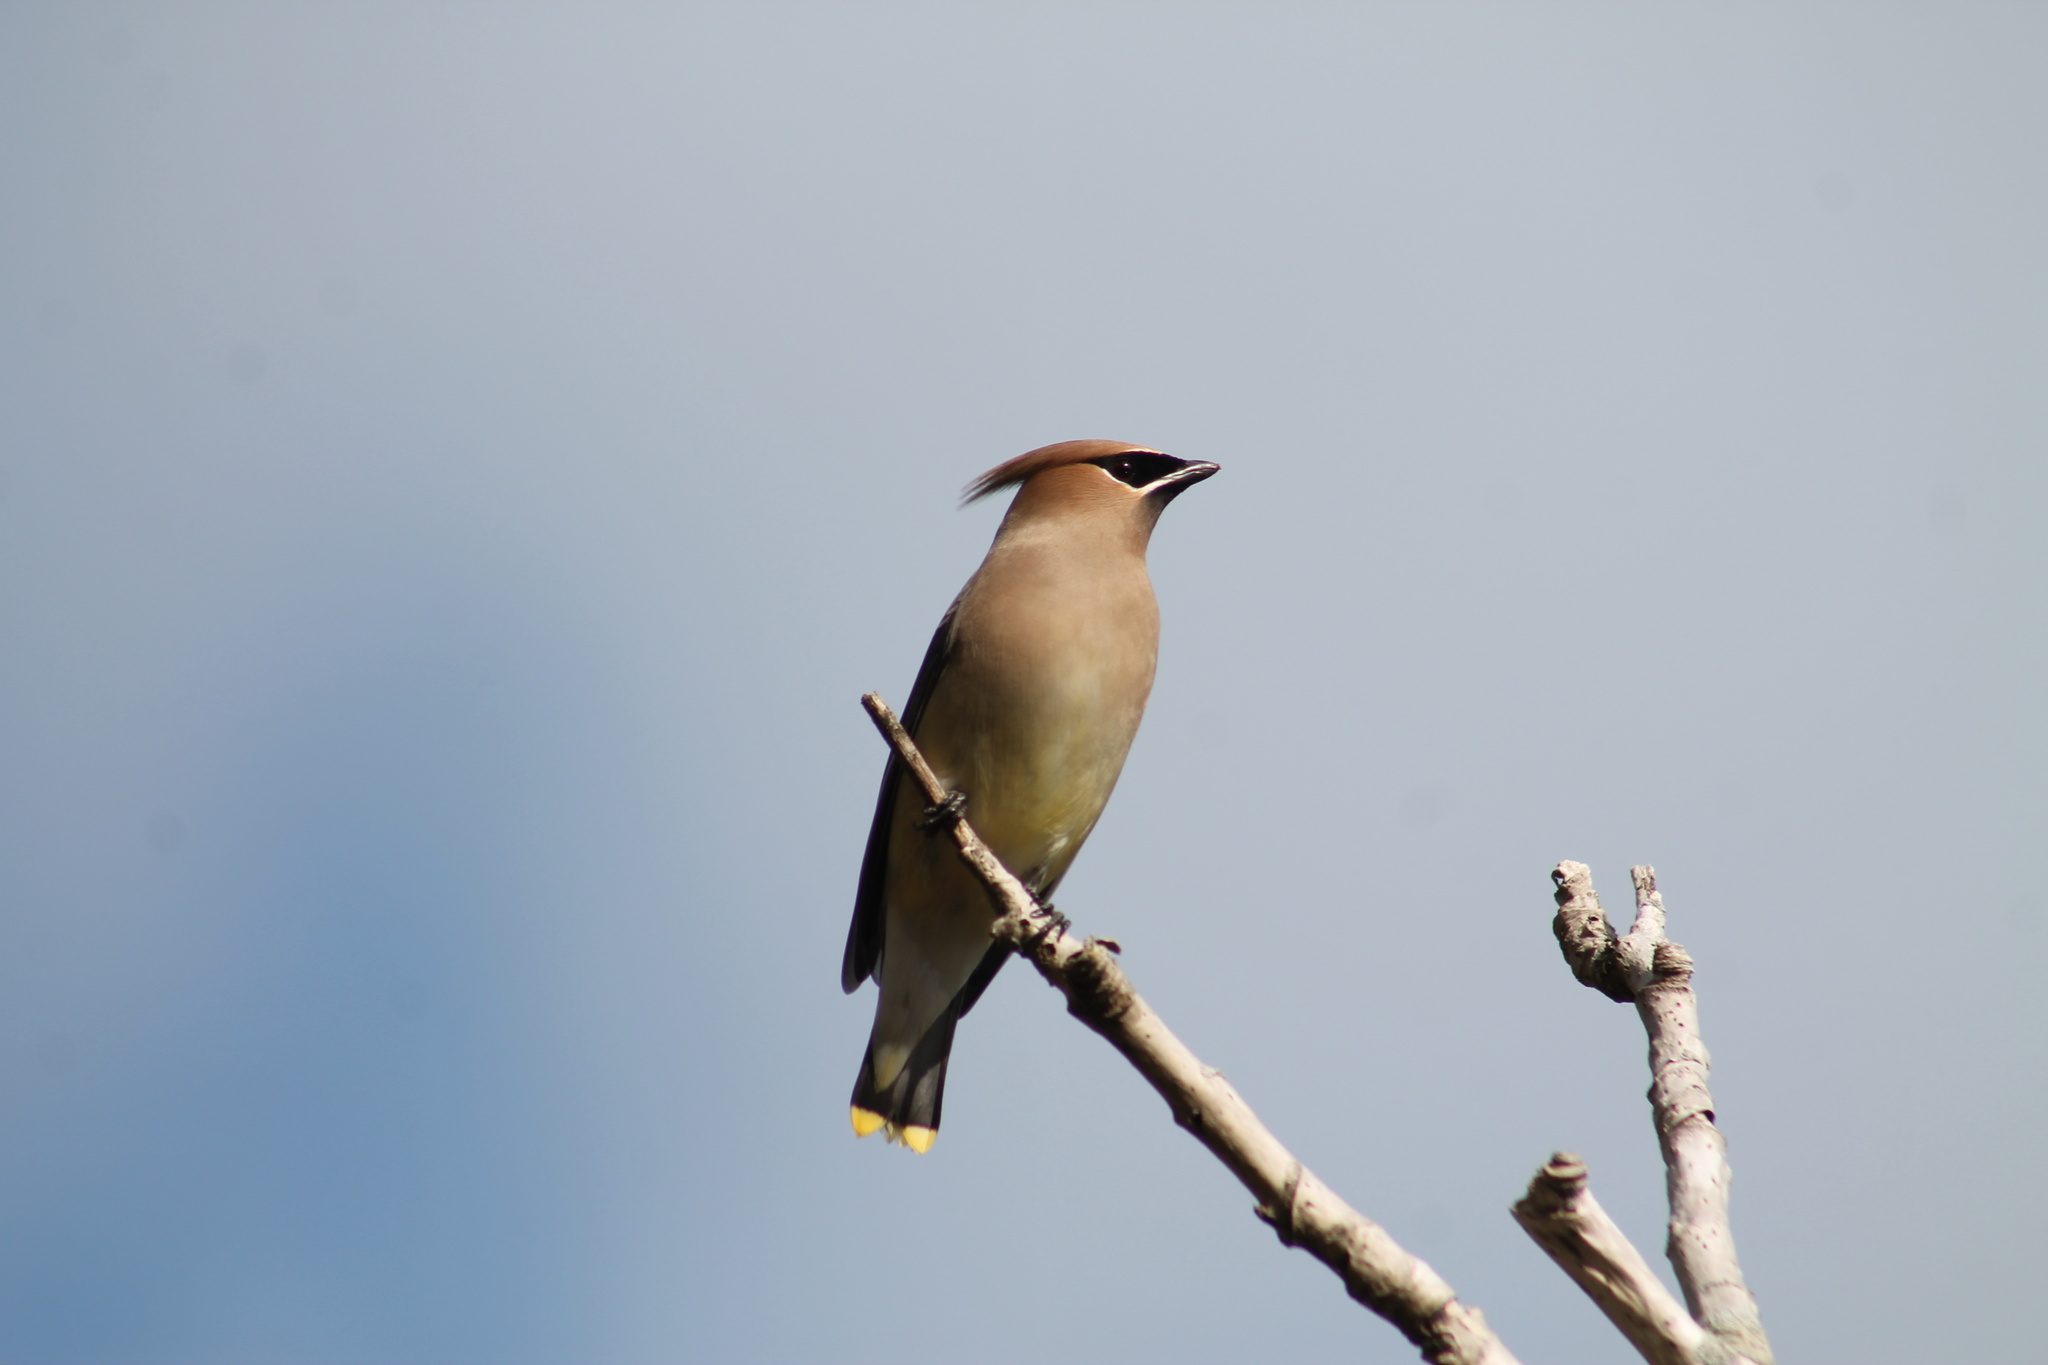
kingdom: Animalia
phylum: Chordata
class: Aves
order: Passeriformes
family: Bombycillidae
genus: Bombycilla
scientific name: Bombycilla cedrorum
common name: Cedar waxwing
